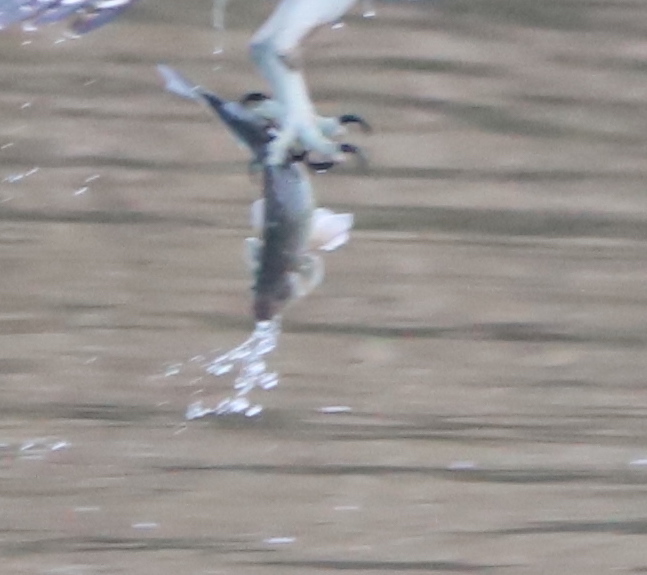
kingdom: Animalia
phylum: Chordata
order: Perciformes
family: Moronidae
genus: Morone
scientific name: Morone americana
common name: White perch
